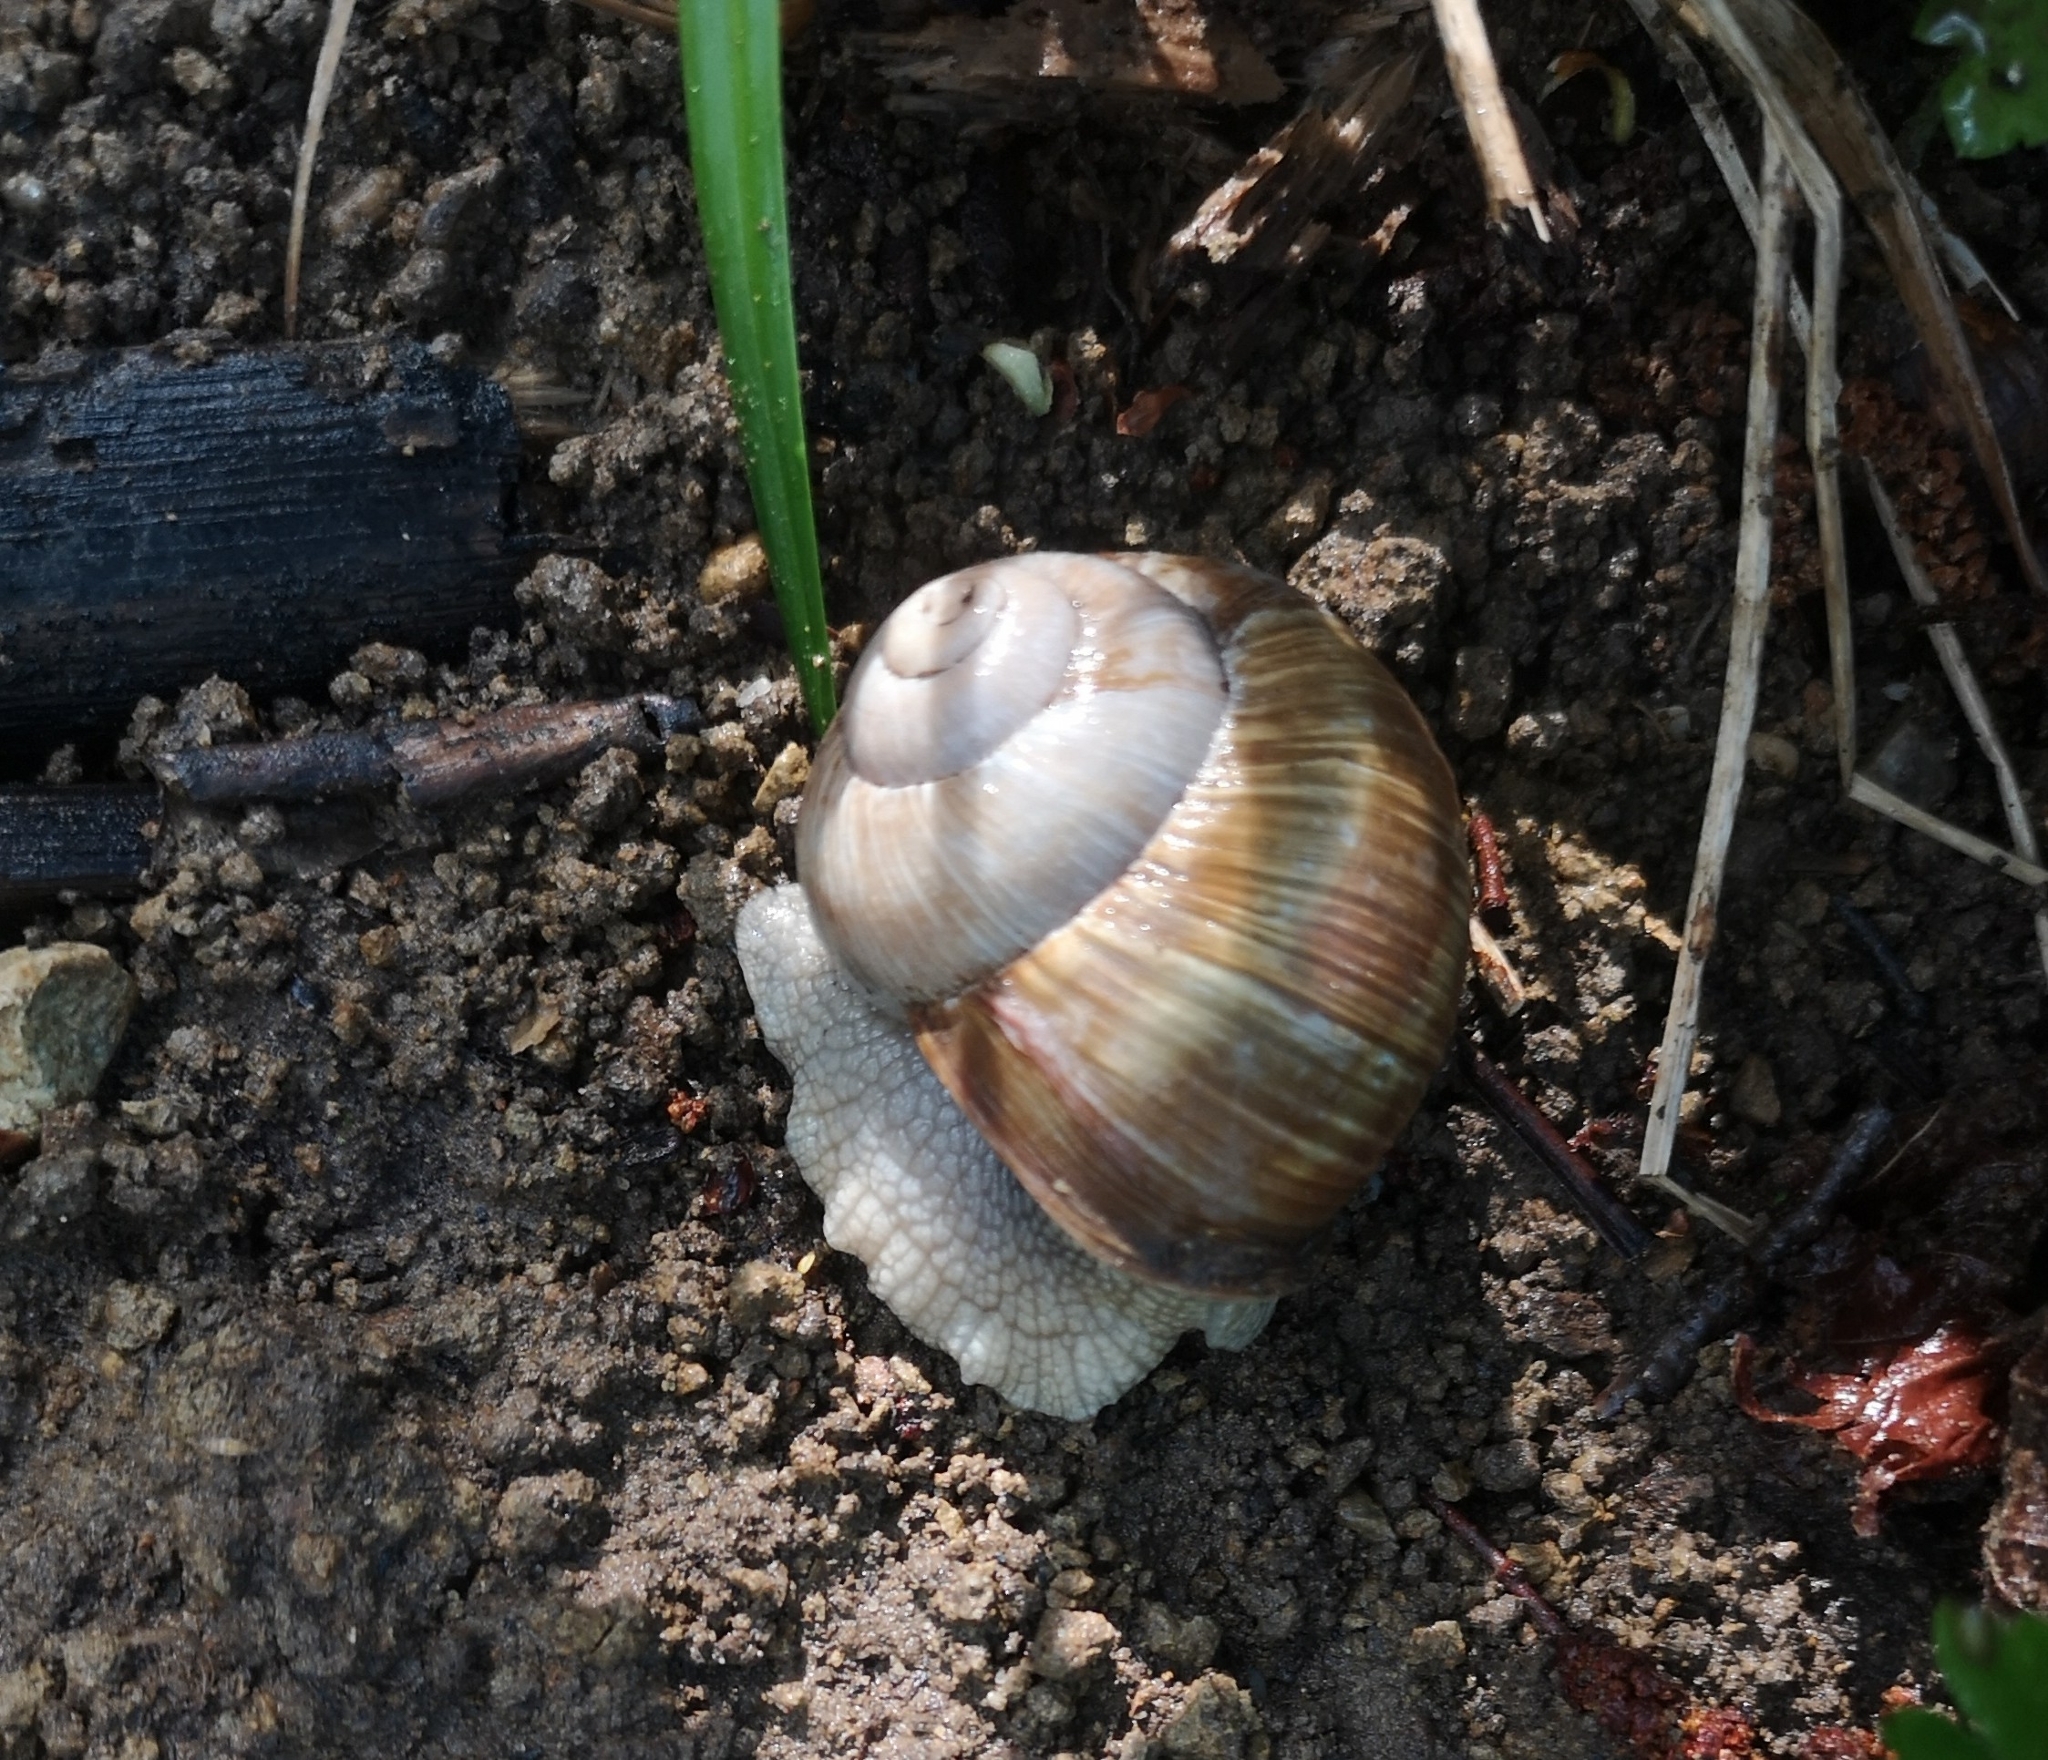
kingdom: Animalia
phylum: Mollusca
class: Gastropoda
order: Stylommatophora
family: Helicidae
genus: Helix
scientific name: Helix pomatia
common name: Roman snail
